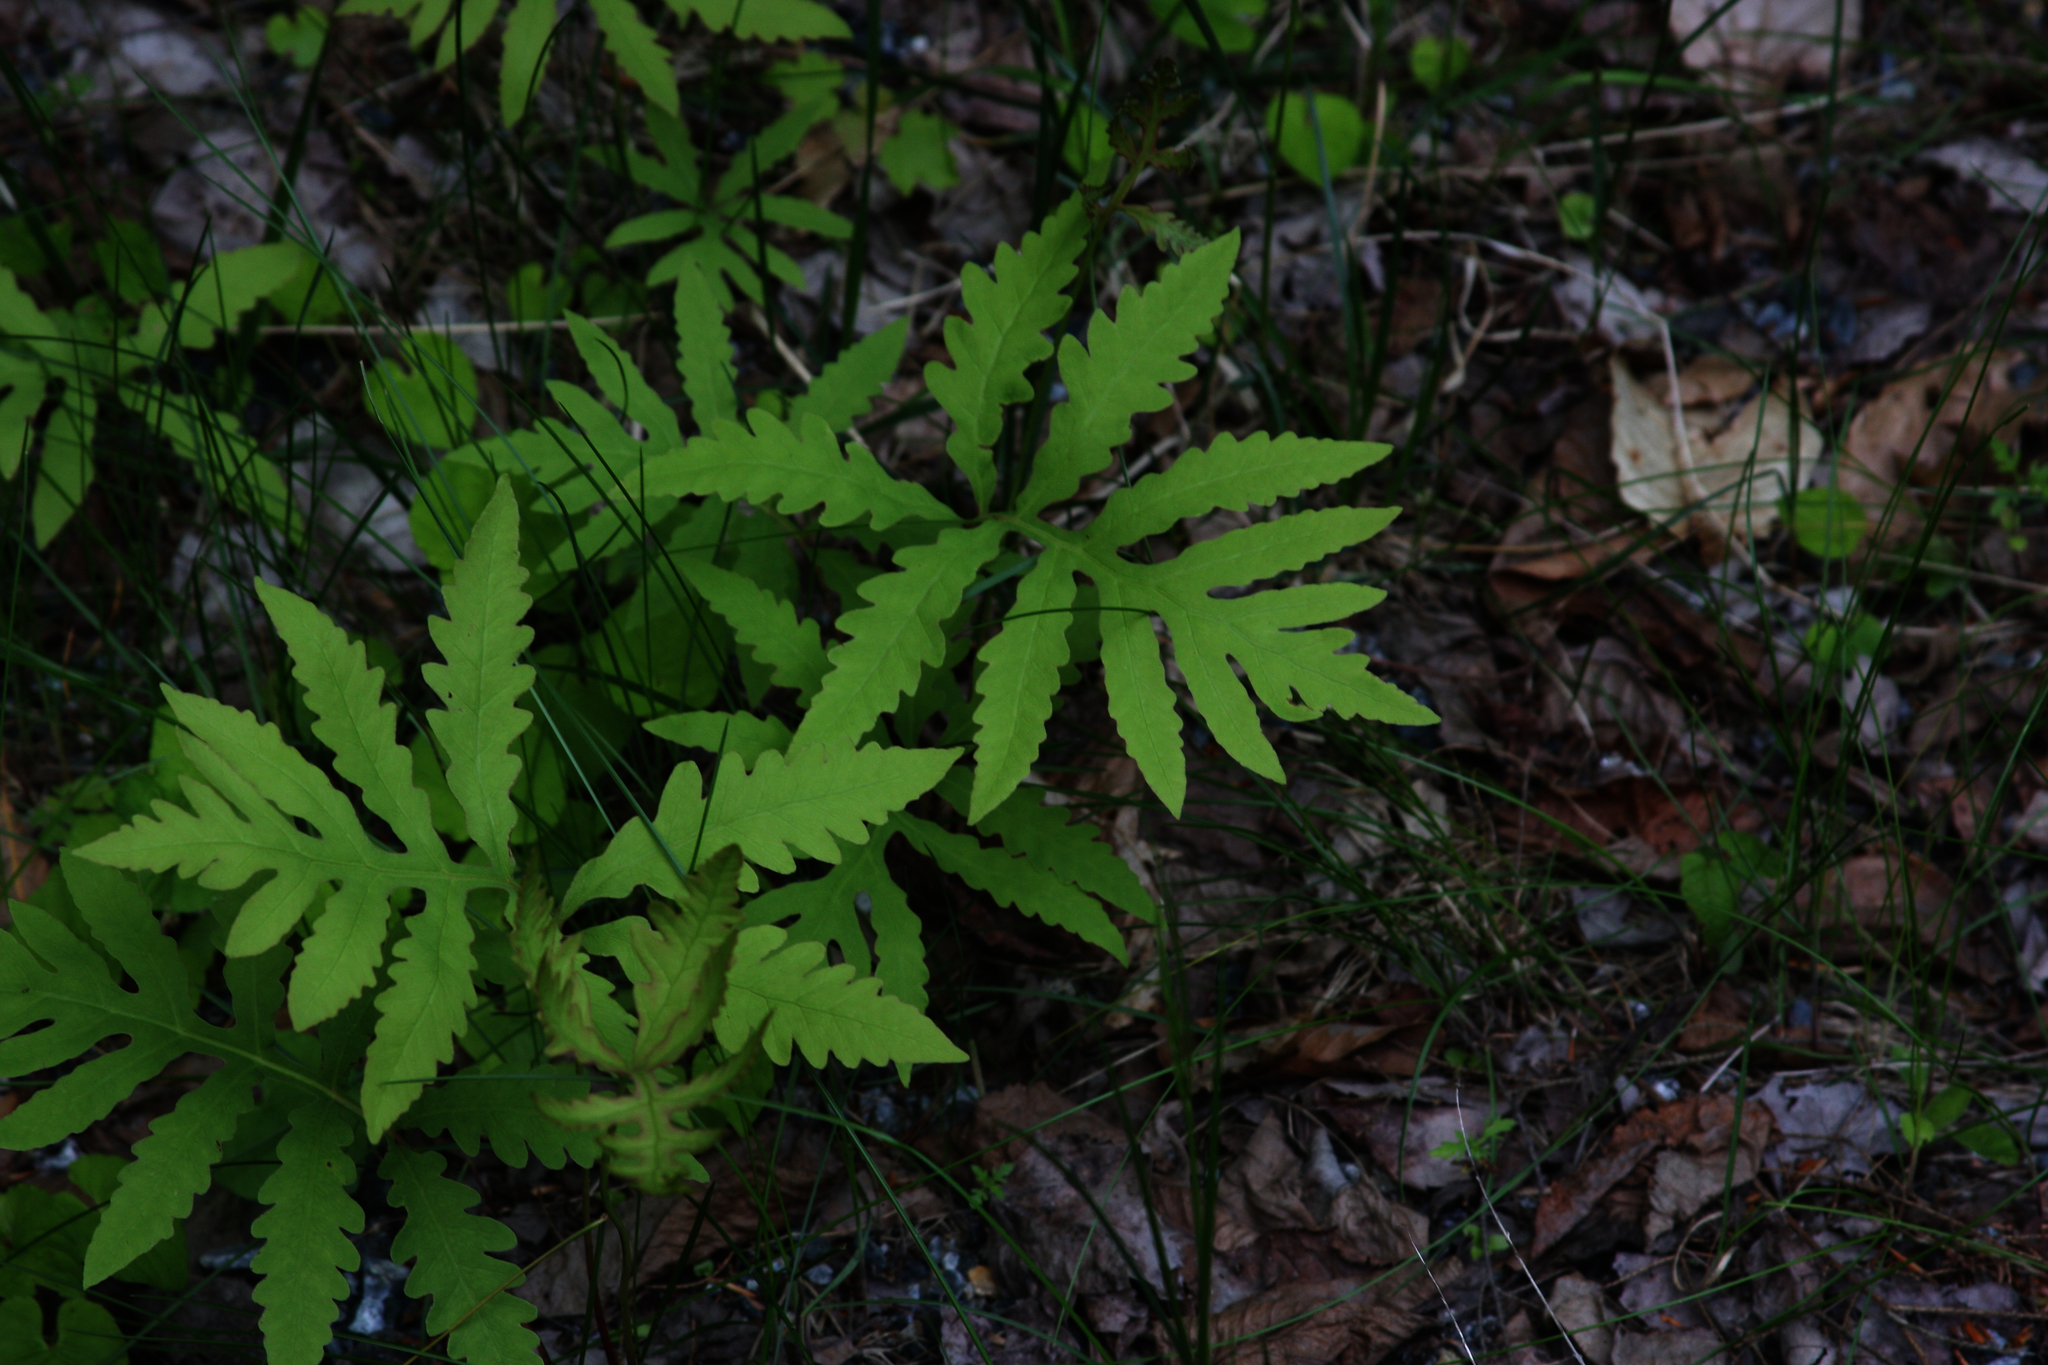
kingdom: Plantae
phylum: Tracheophyta
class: Polypodiopsida
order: Polypodiales
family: Onocleaceae
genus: Onoclea
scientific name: Onoclea sensibilis
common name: Sensitive fern
